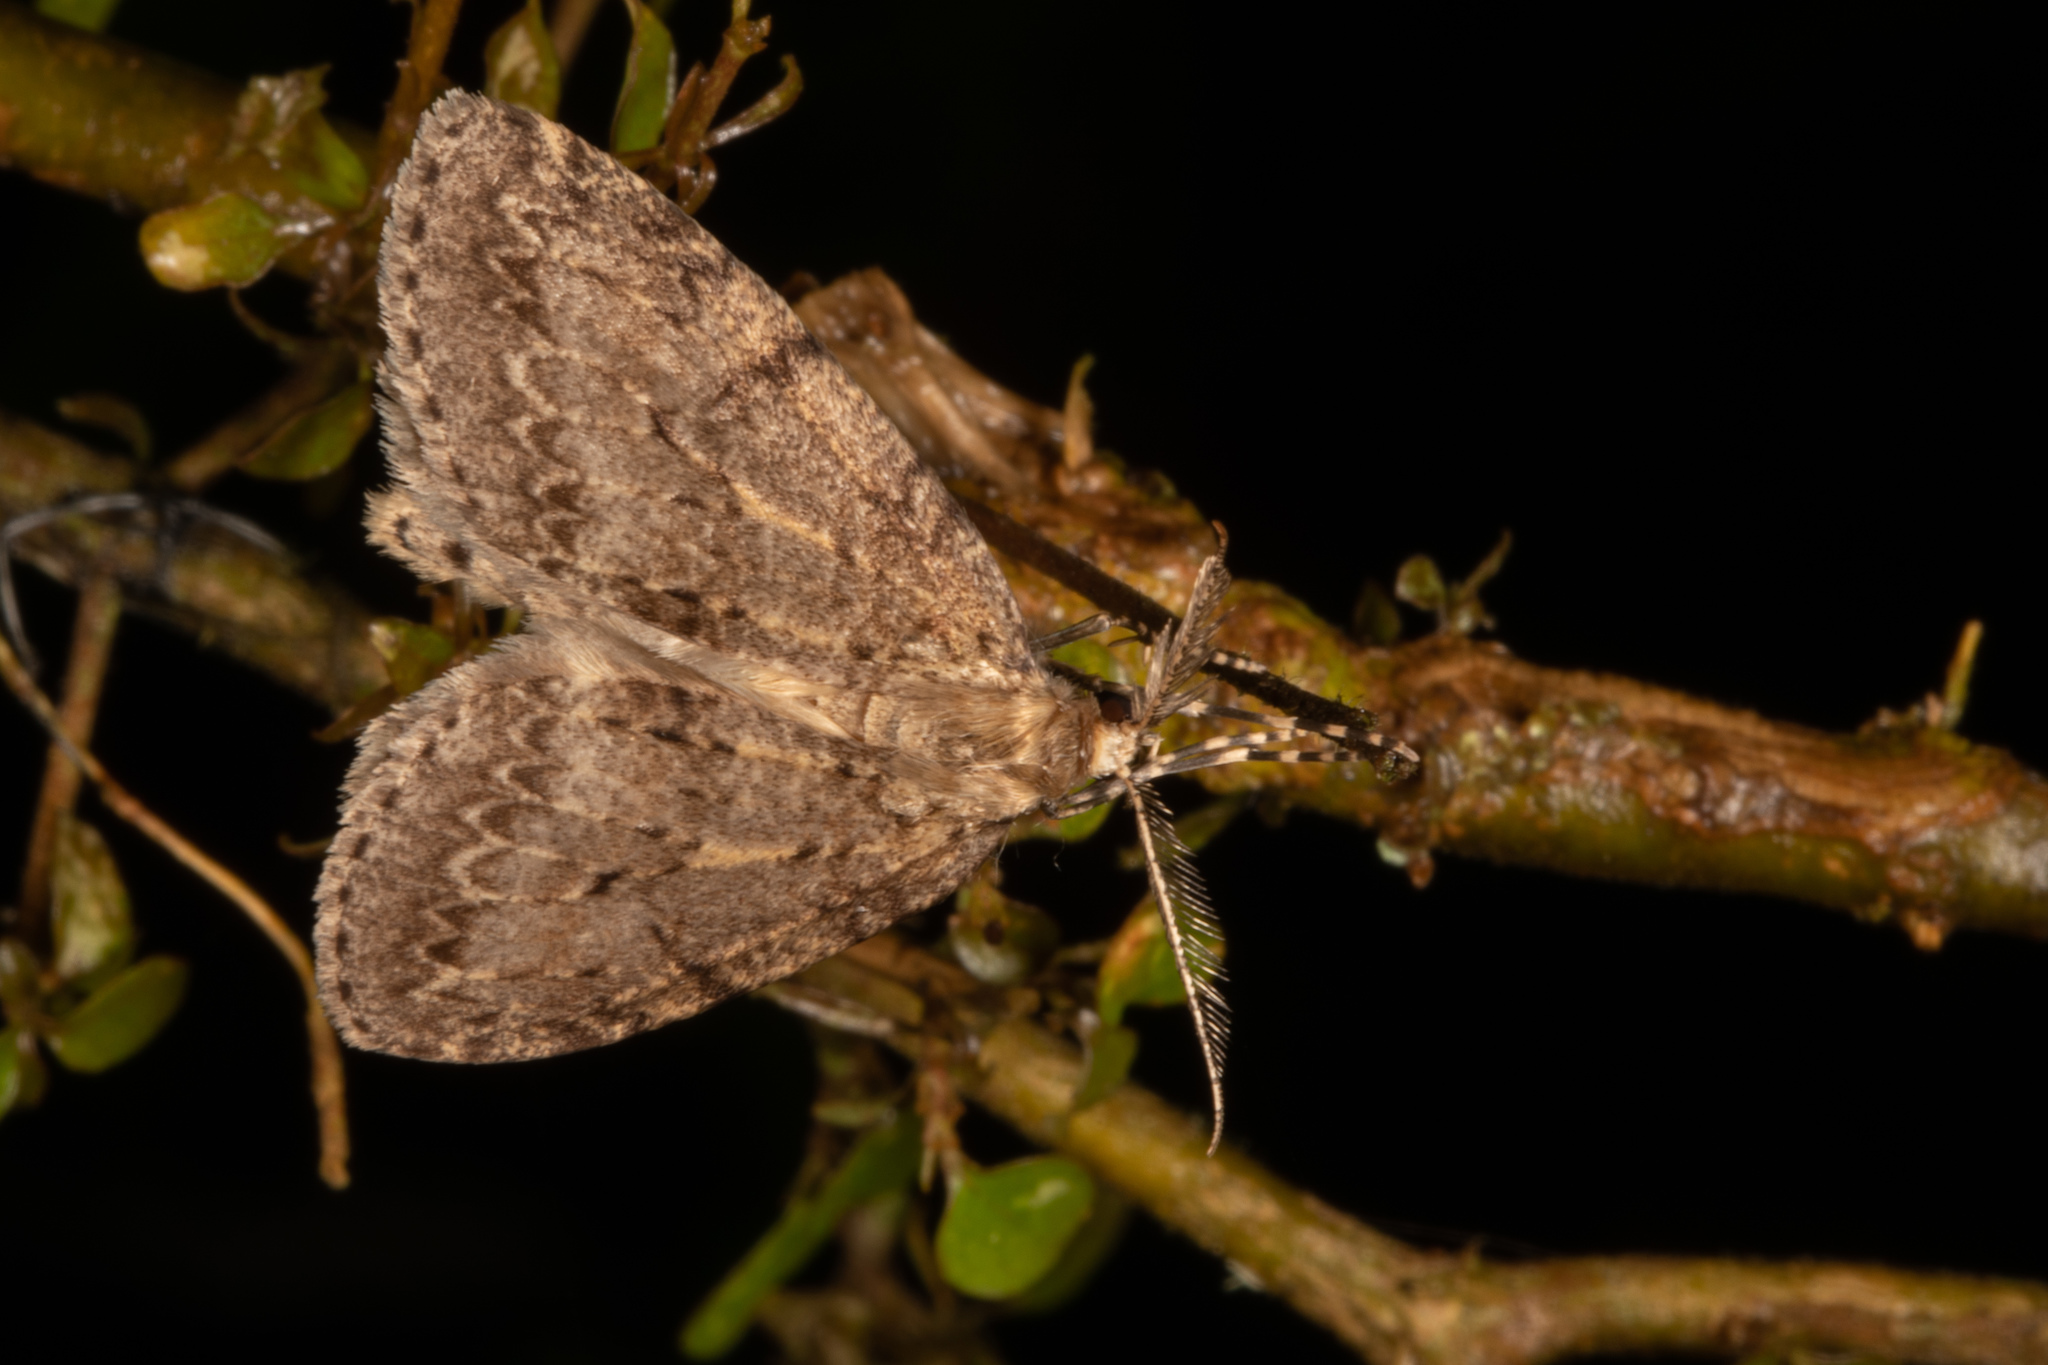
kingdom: Animalia
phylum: Arthropoda
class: Insecta
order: Lepidoptera
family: Geometridae
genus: Pseudocoremia
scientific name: Pseudocoremia fenerata
